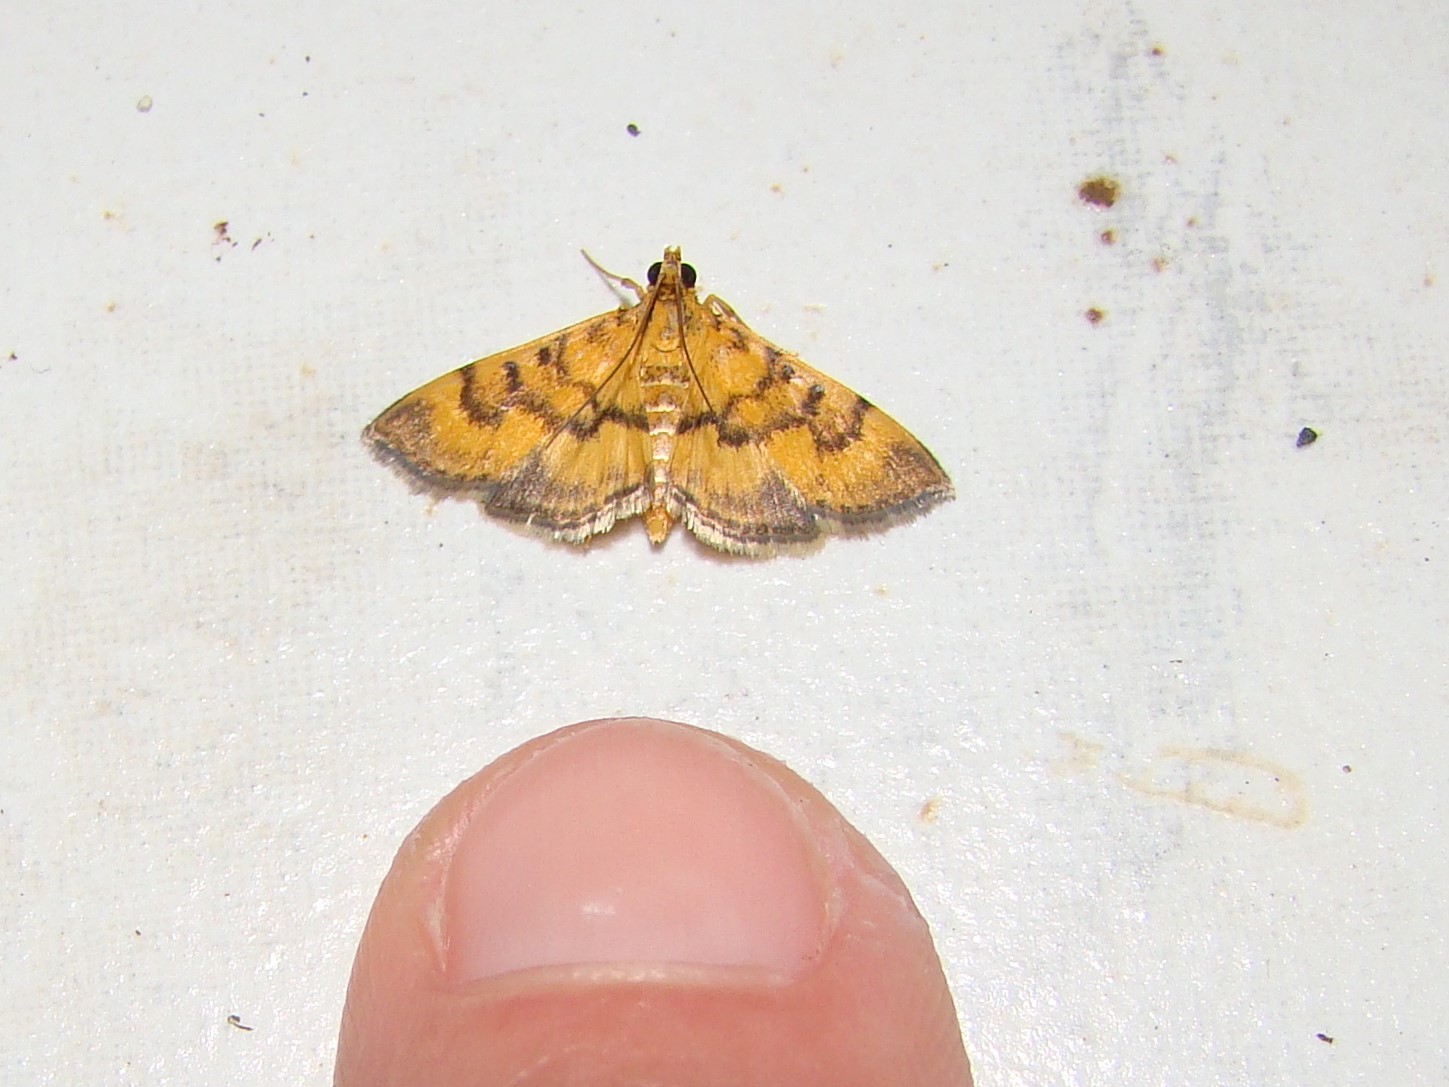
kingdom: Animalia
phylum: Arthropoda
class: Insecta
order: Lepidoptera
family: Crambidae
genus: Omiodes
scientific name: Omiodes diemenalis
